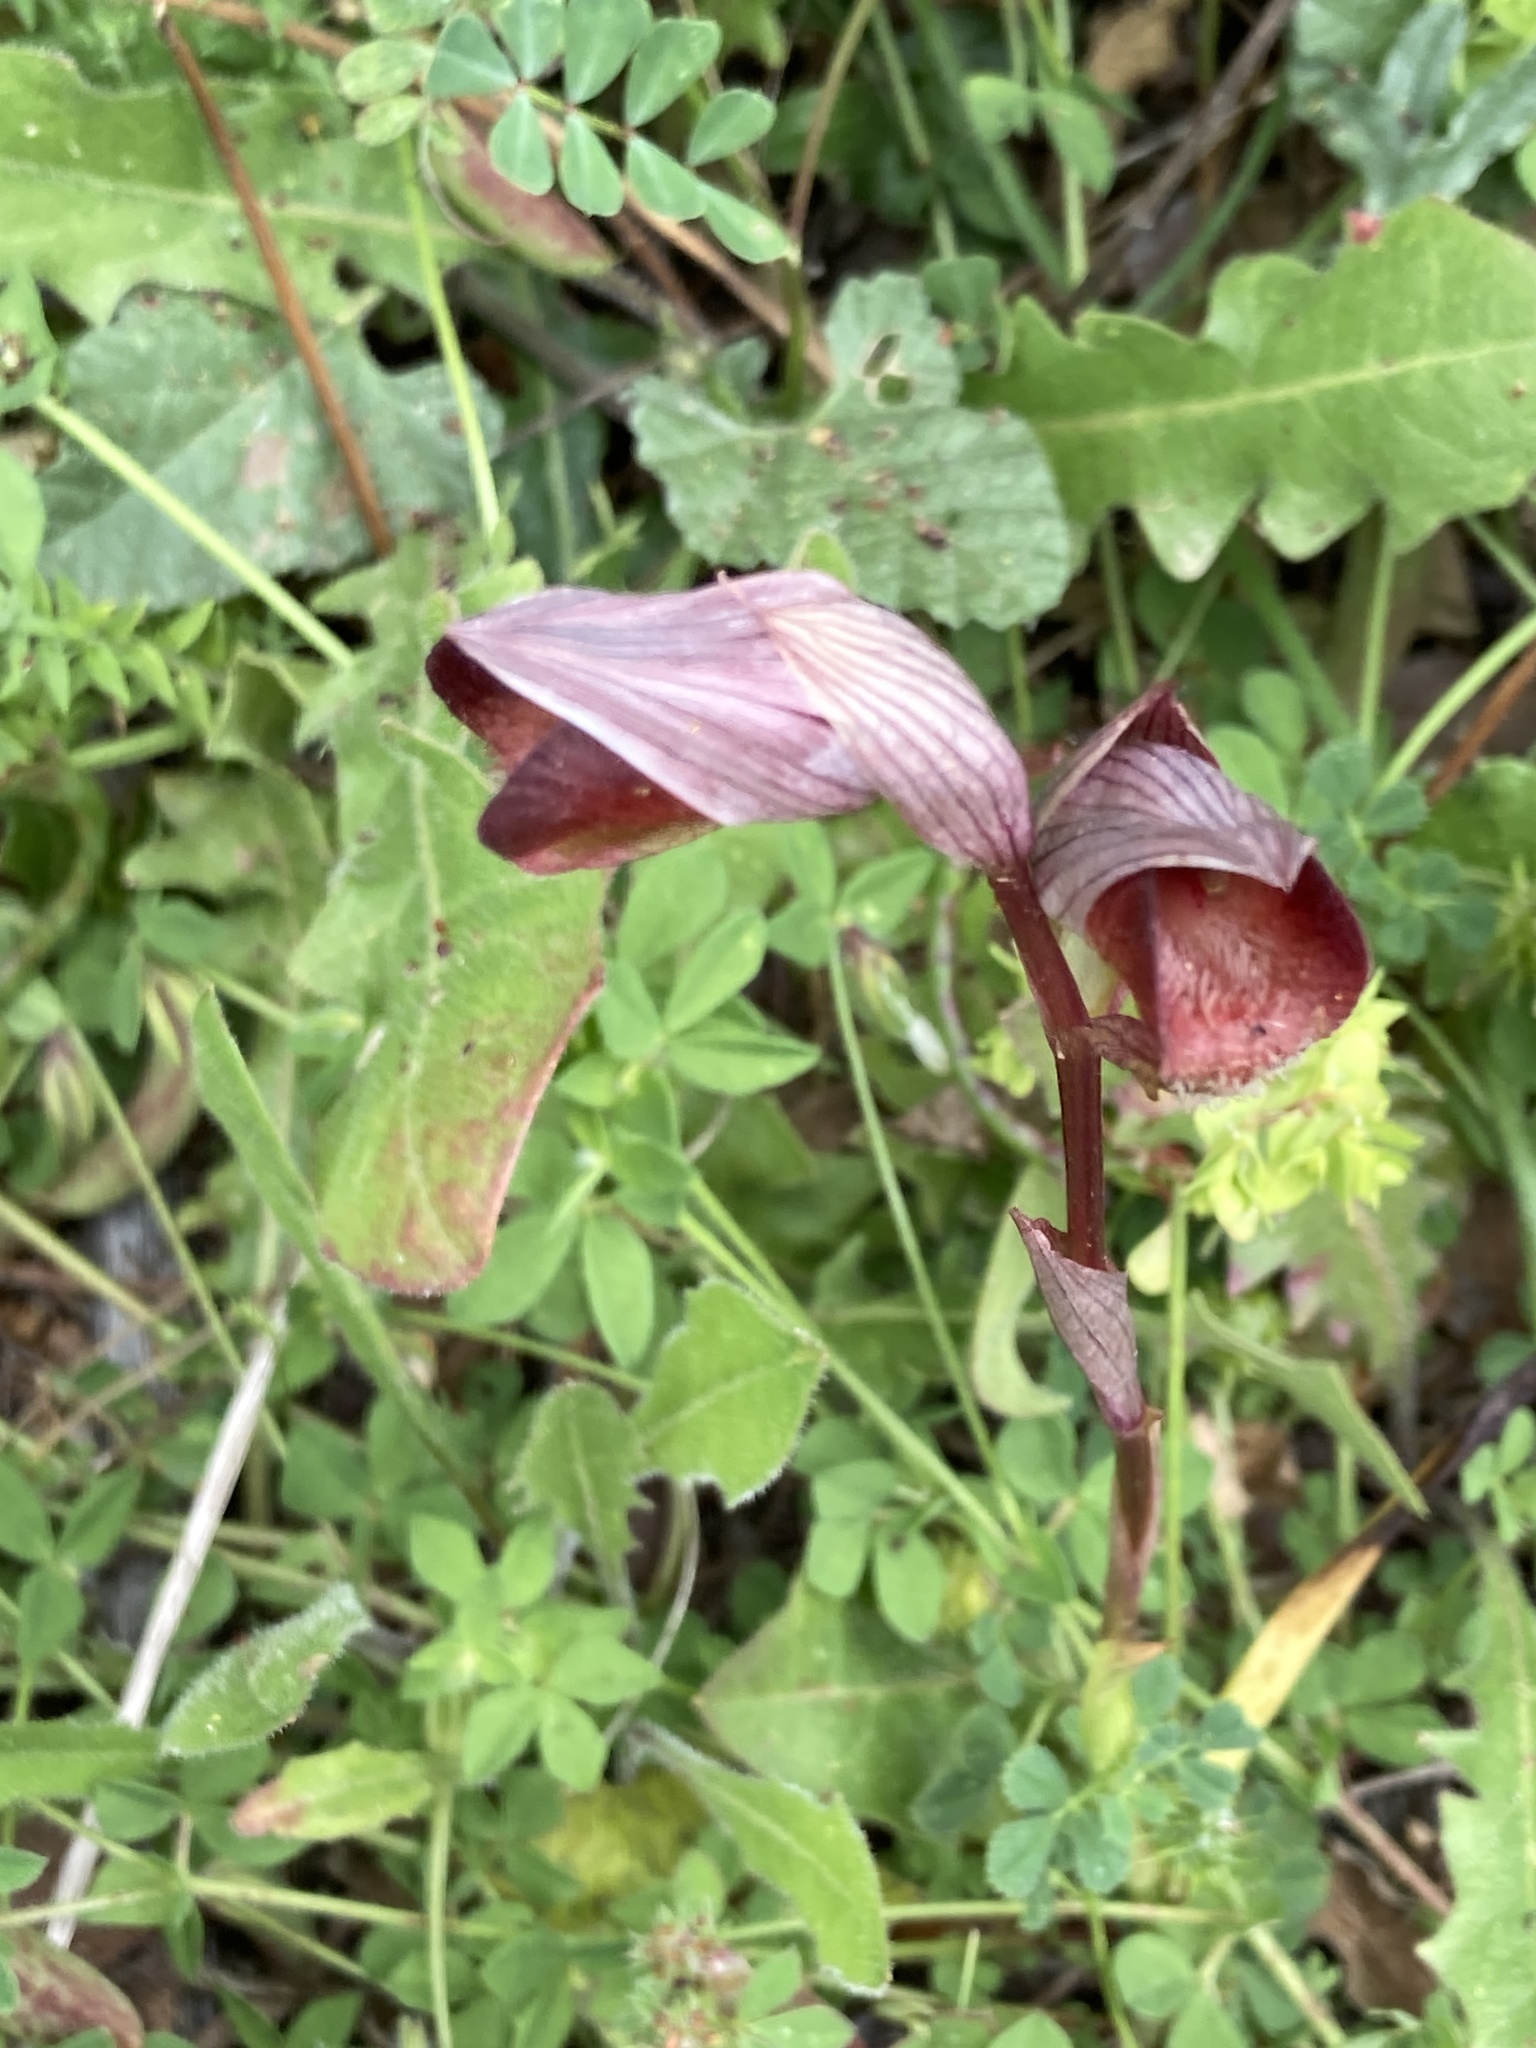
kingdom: Plantae
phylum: Tracheophyta
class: Liliopsida
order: Asparagales
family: Orchidaceae
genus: Serapias
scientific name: Serapias orientalis
